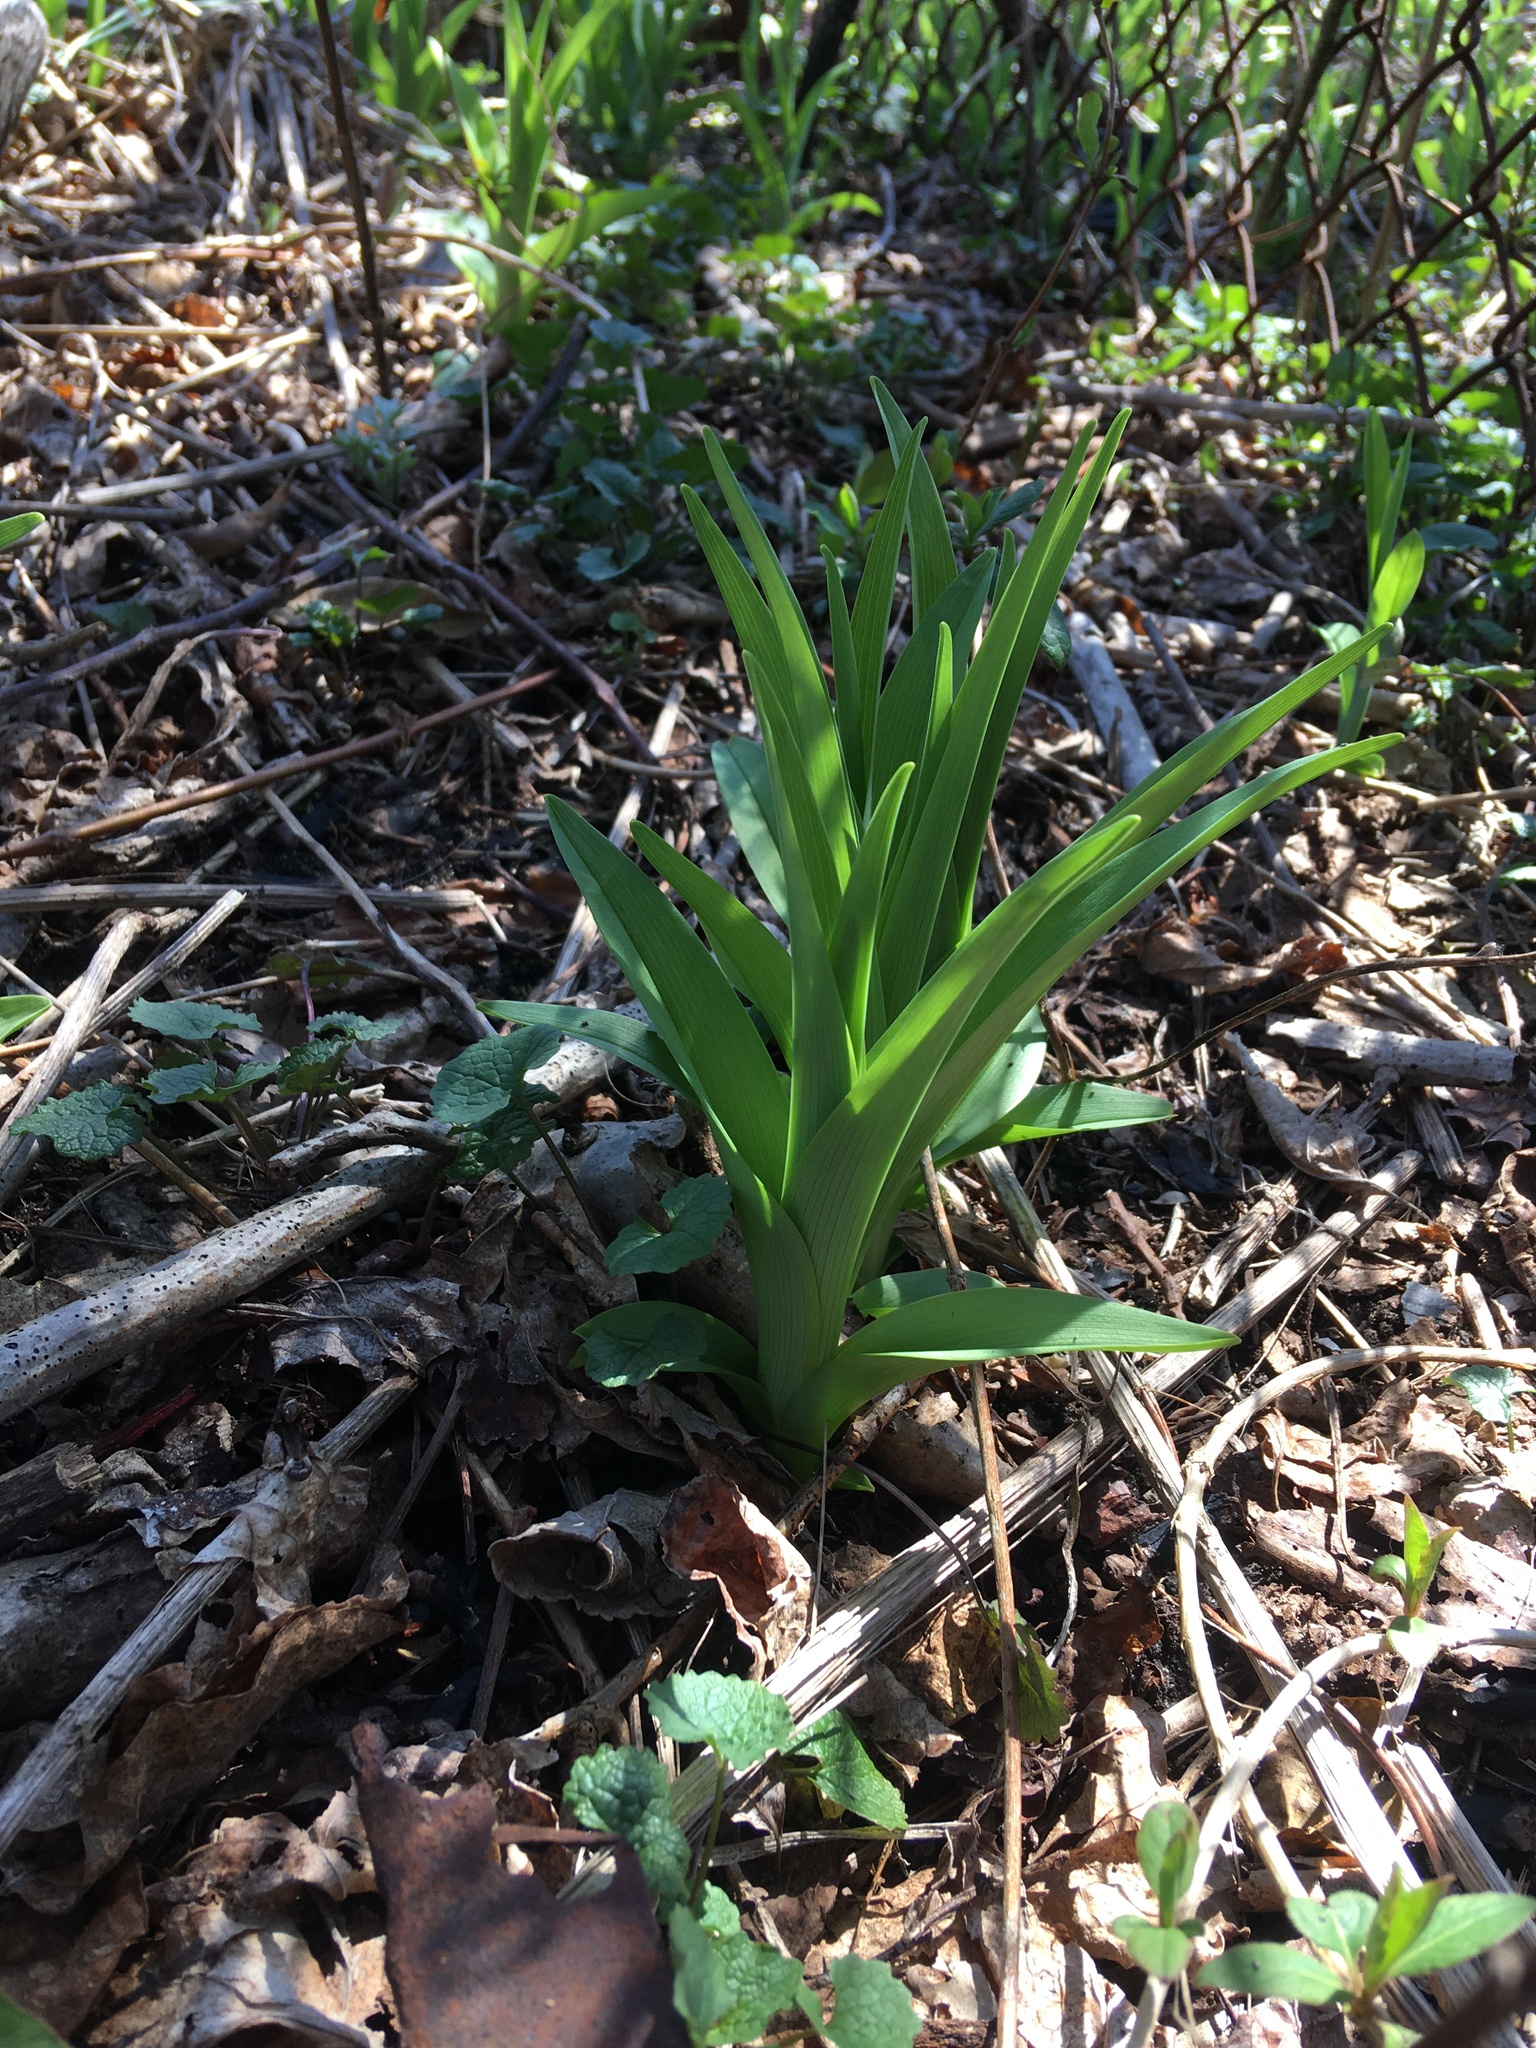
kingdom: Plantae
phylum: Tracheophyta
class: Liliopsida
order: Asparagales
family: Asphodelaceae
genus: Hemerocallis
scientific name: Hemerocallis fulva
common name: Orange day-lily
